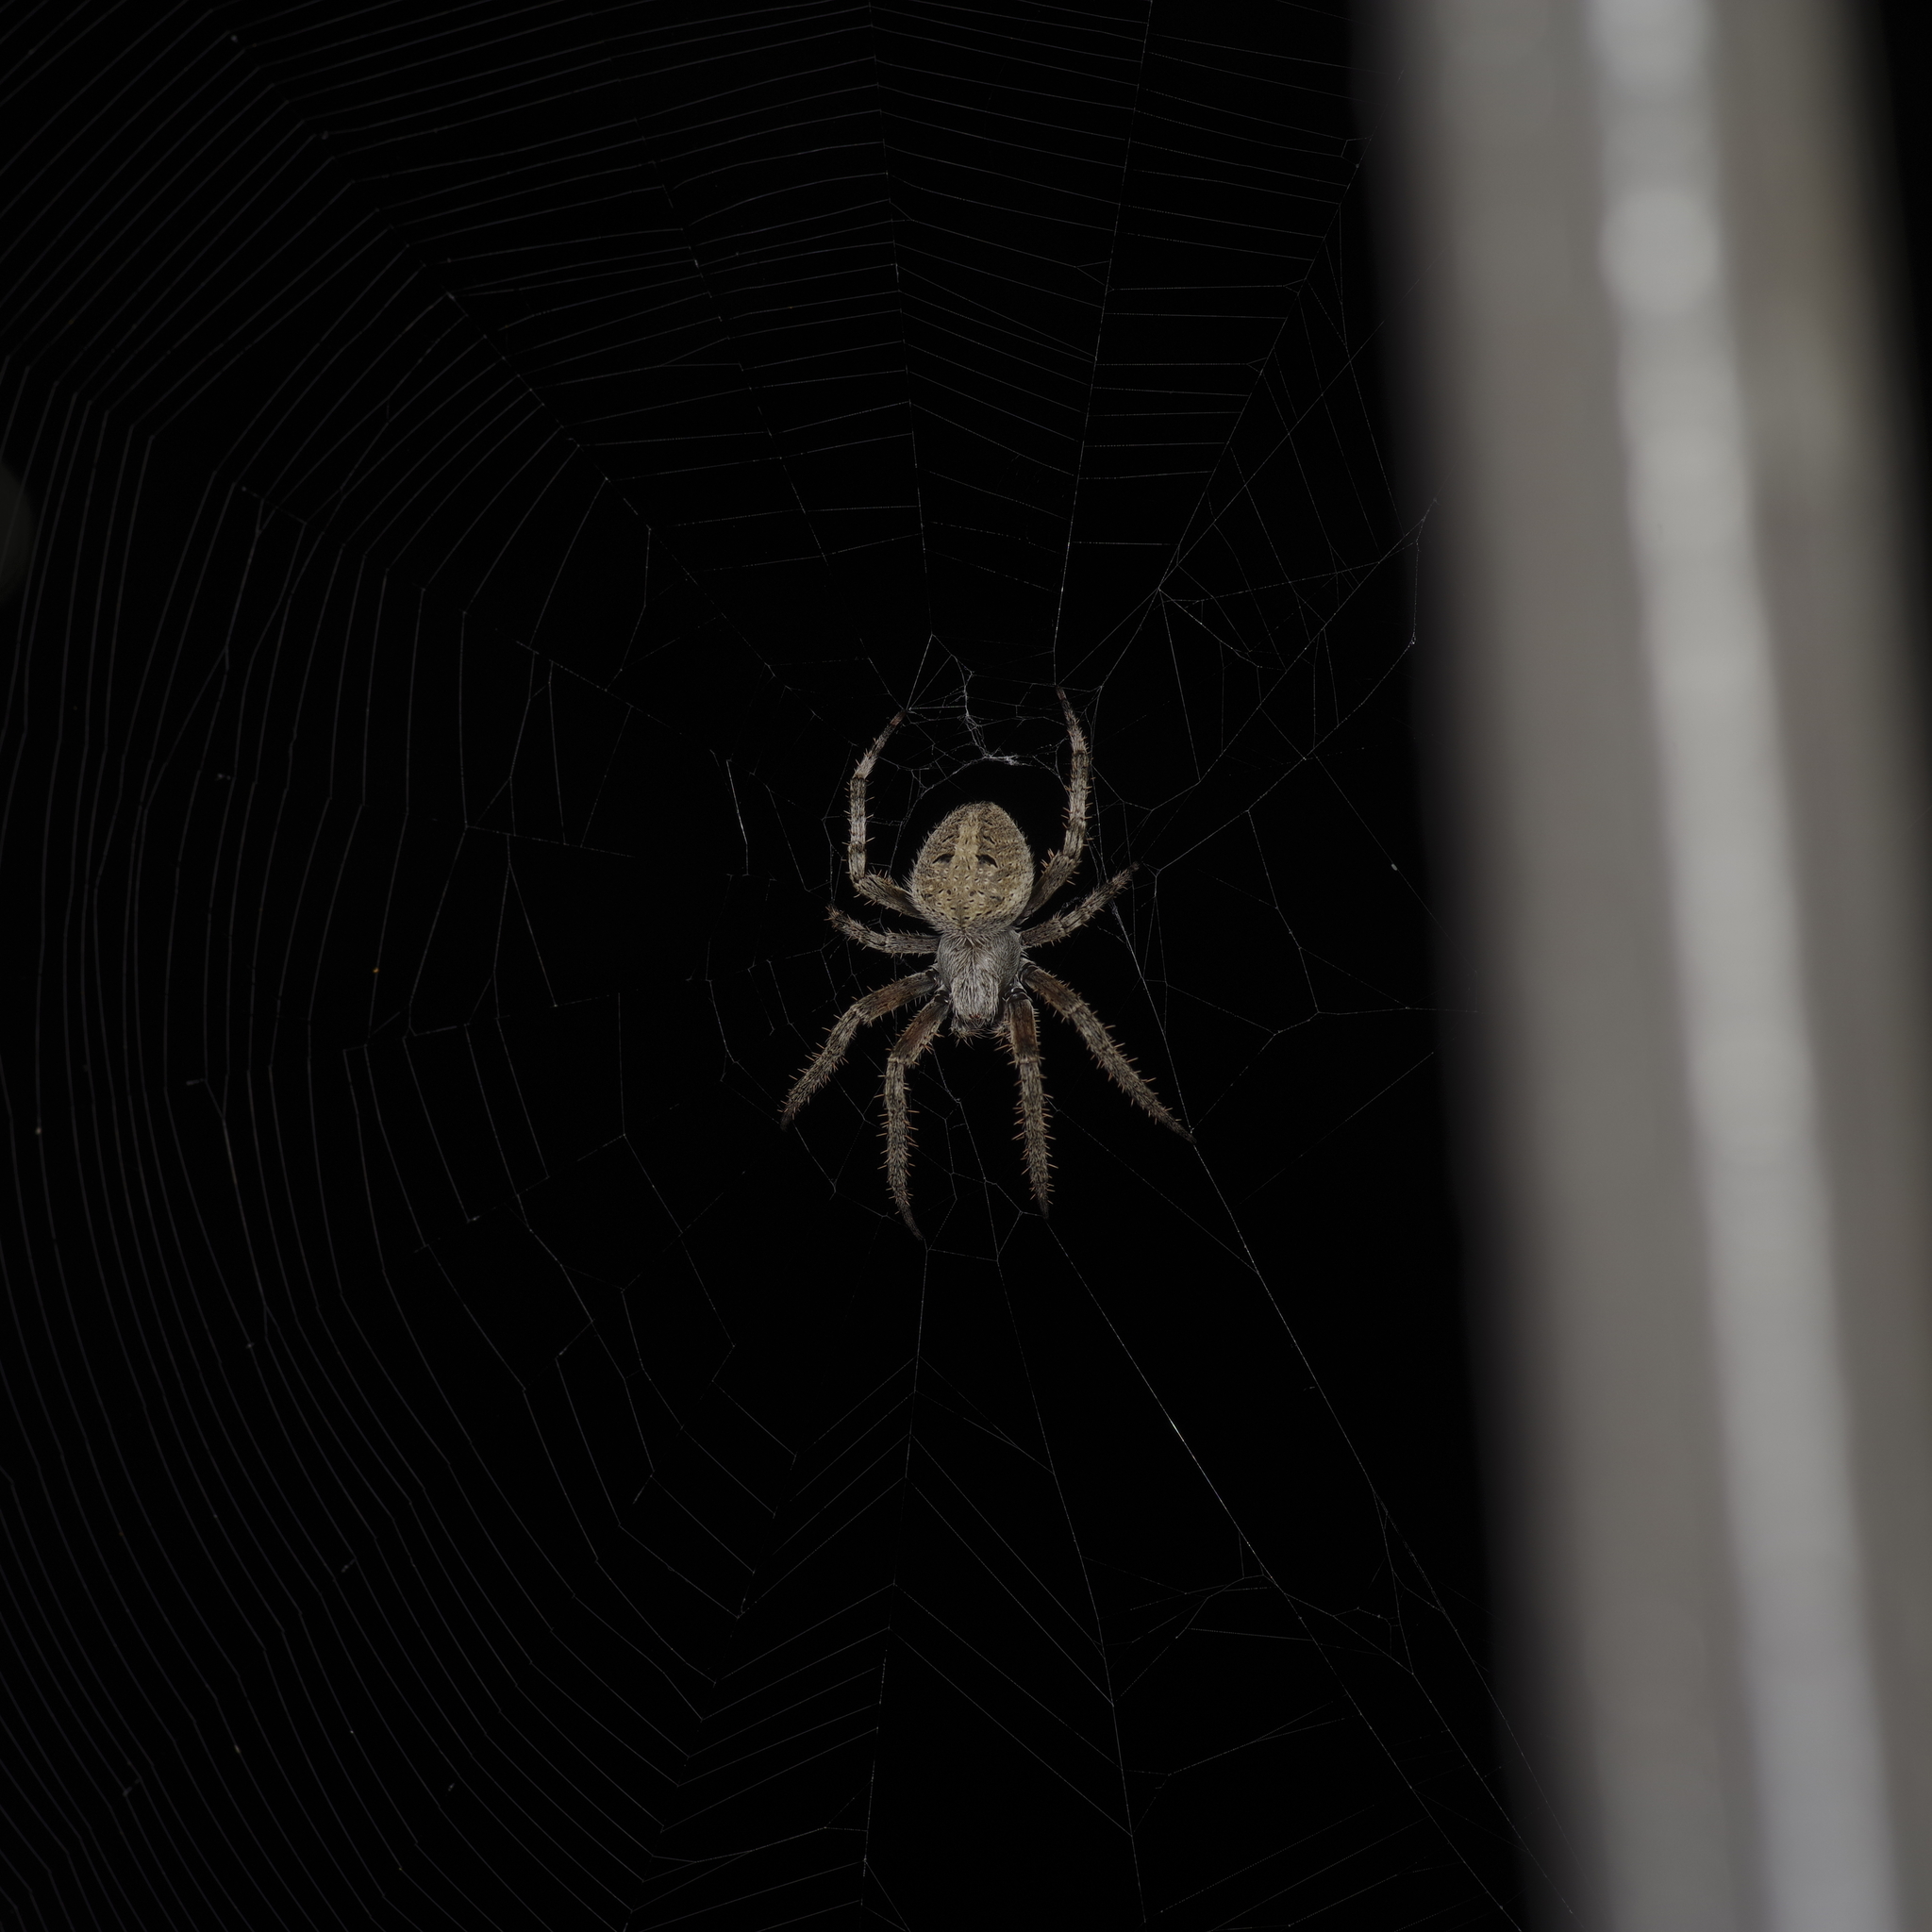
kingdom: Animalia
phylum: Arthropoda
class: Arachnida
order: Araneae
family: Araneidae
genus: Neoscona
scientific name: Neoscona crucifera
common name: Spotted orbweaver
